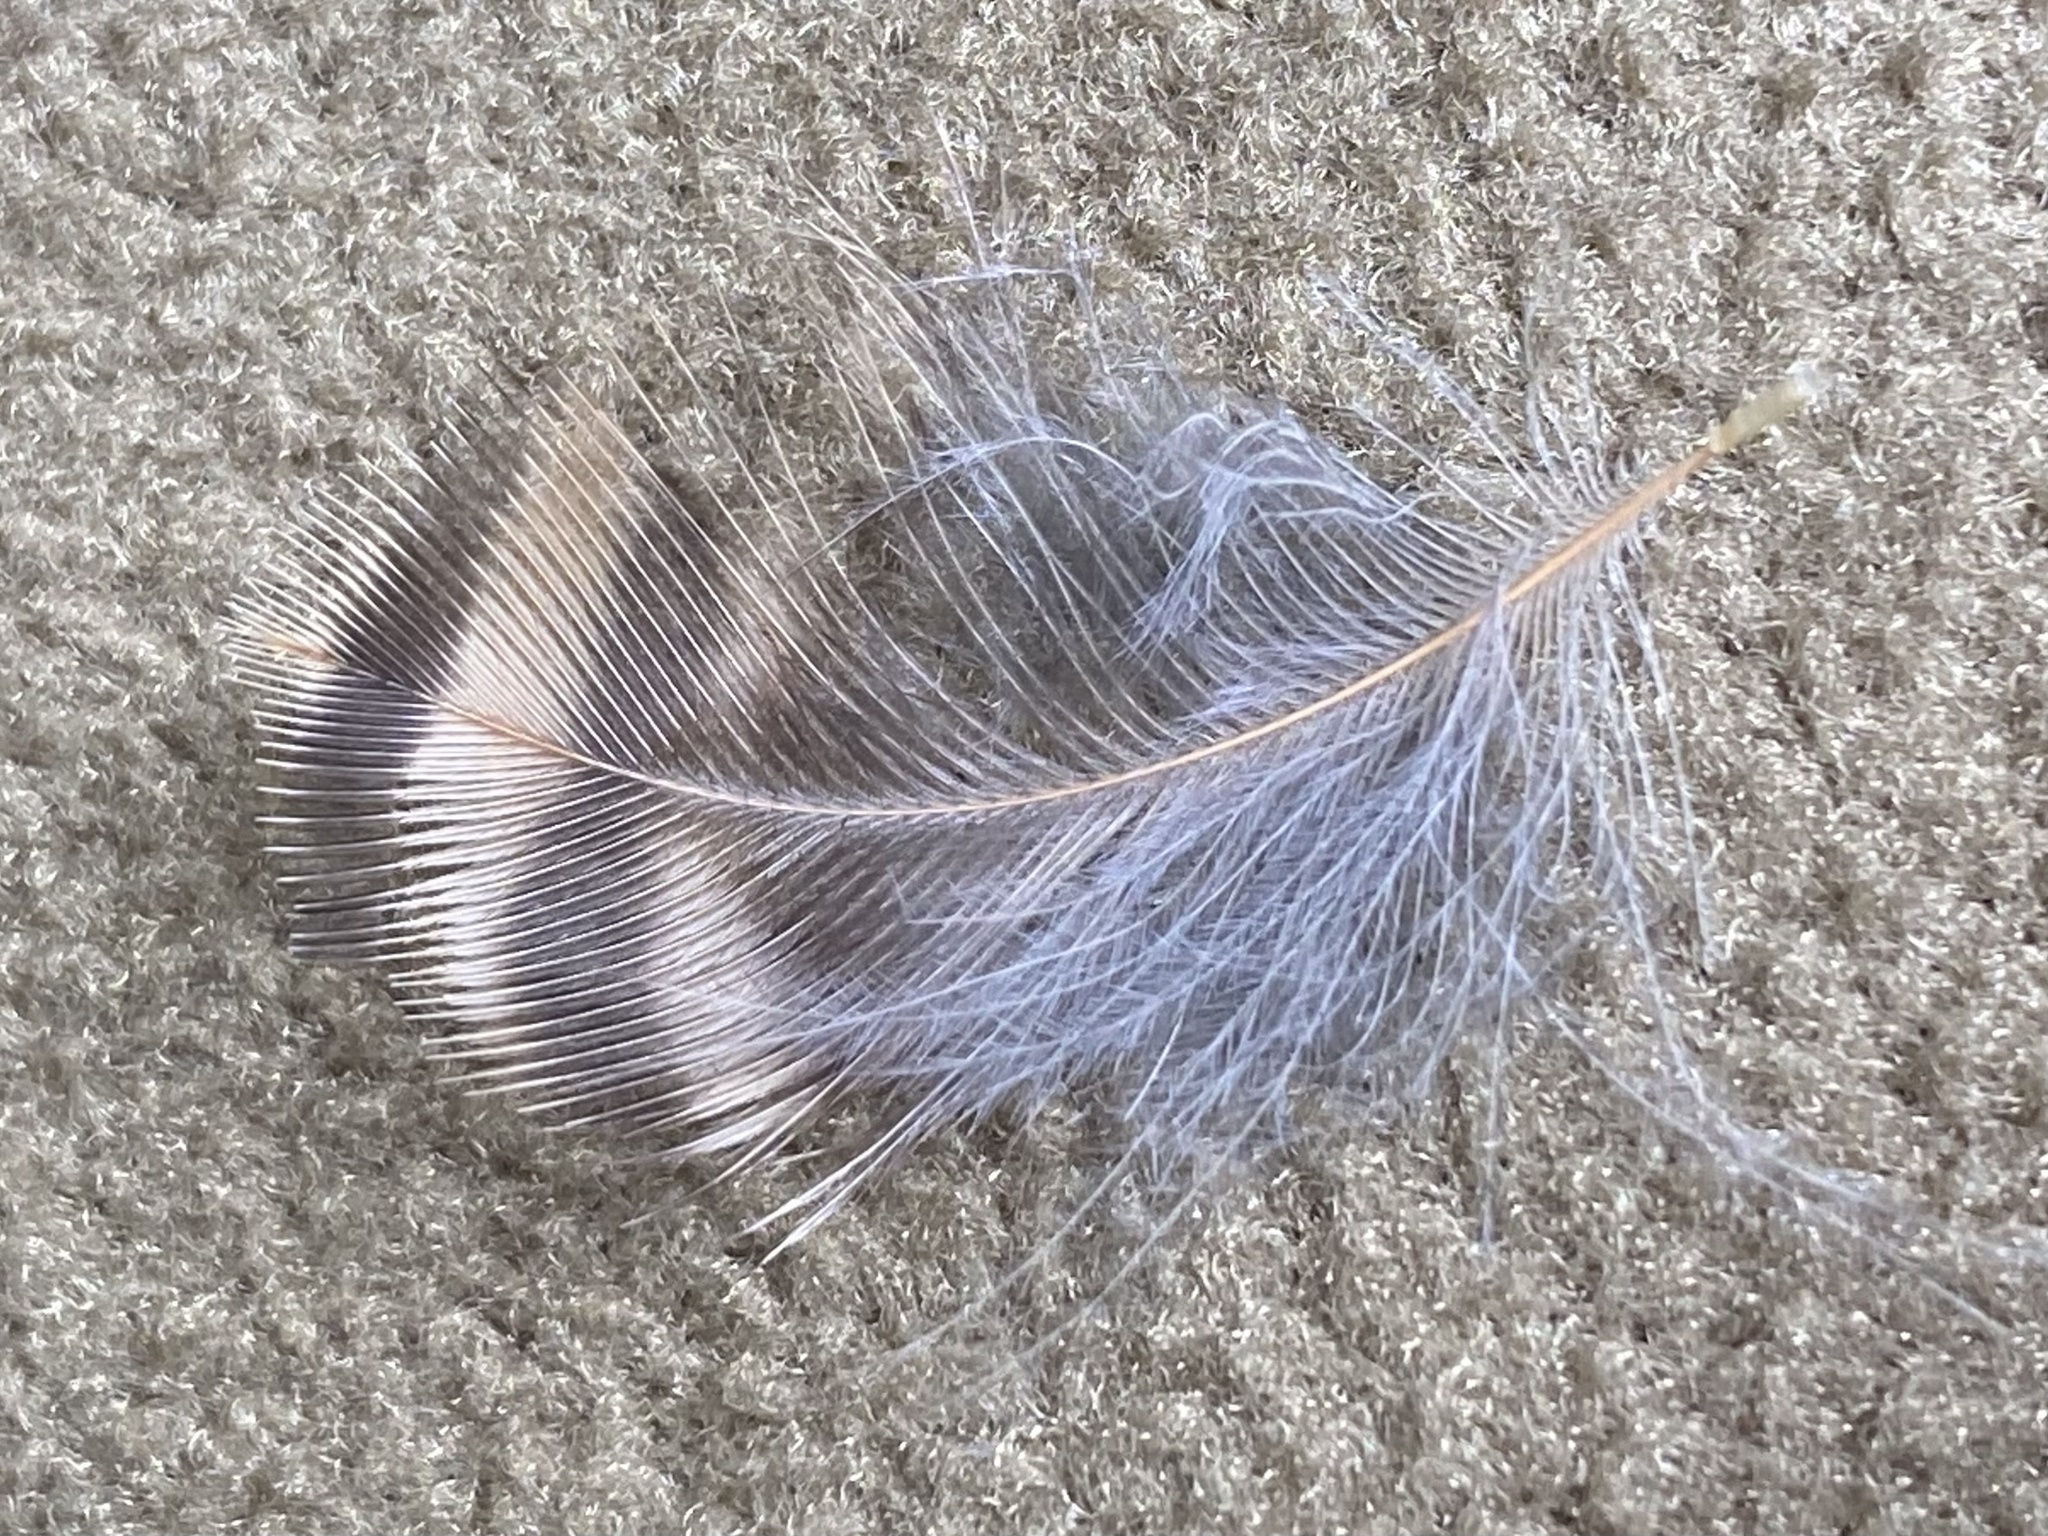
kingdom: Animalia
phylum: Chordata
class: Aves
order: Piciformes
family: Picidae
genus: Colaptes
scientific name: Colaptes auratus
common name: Northern flicker
